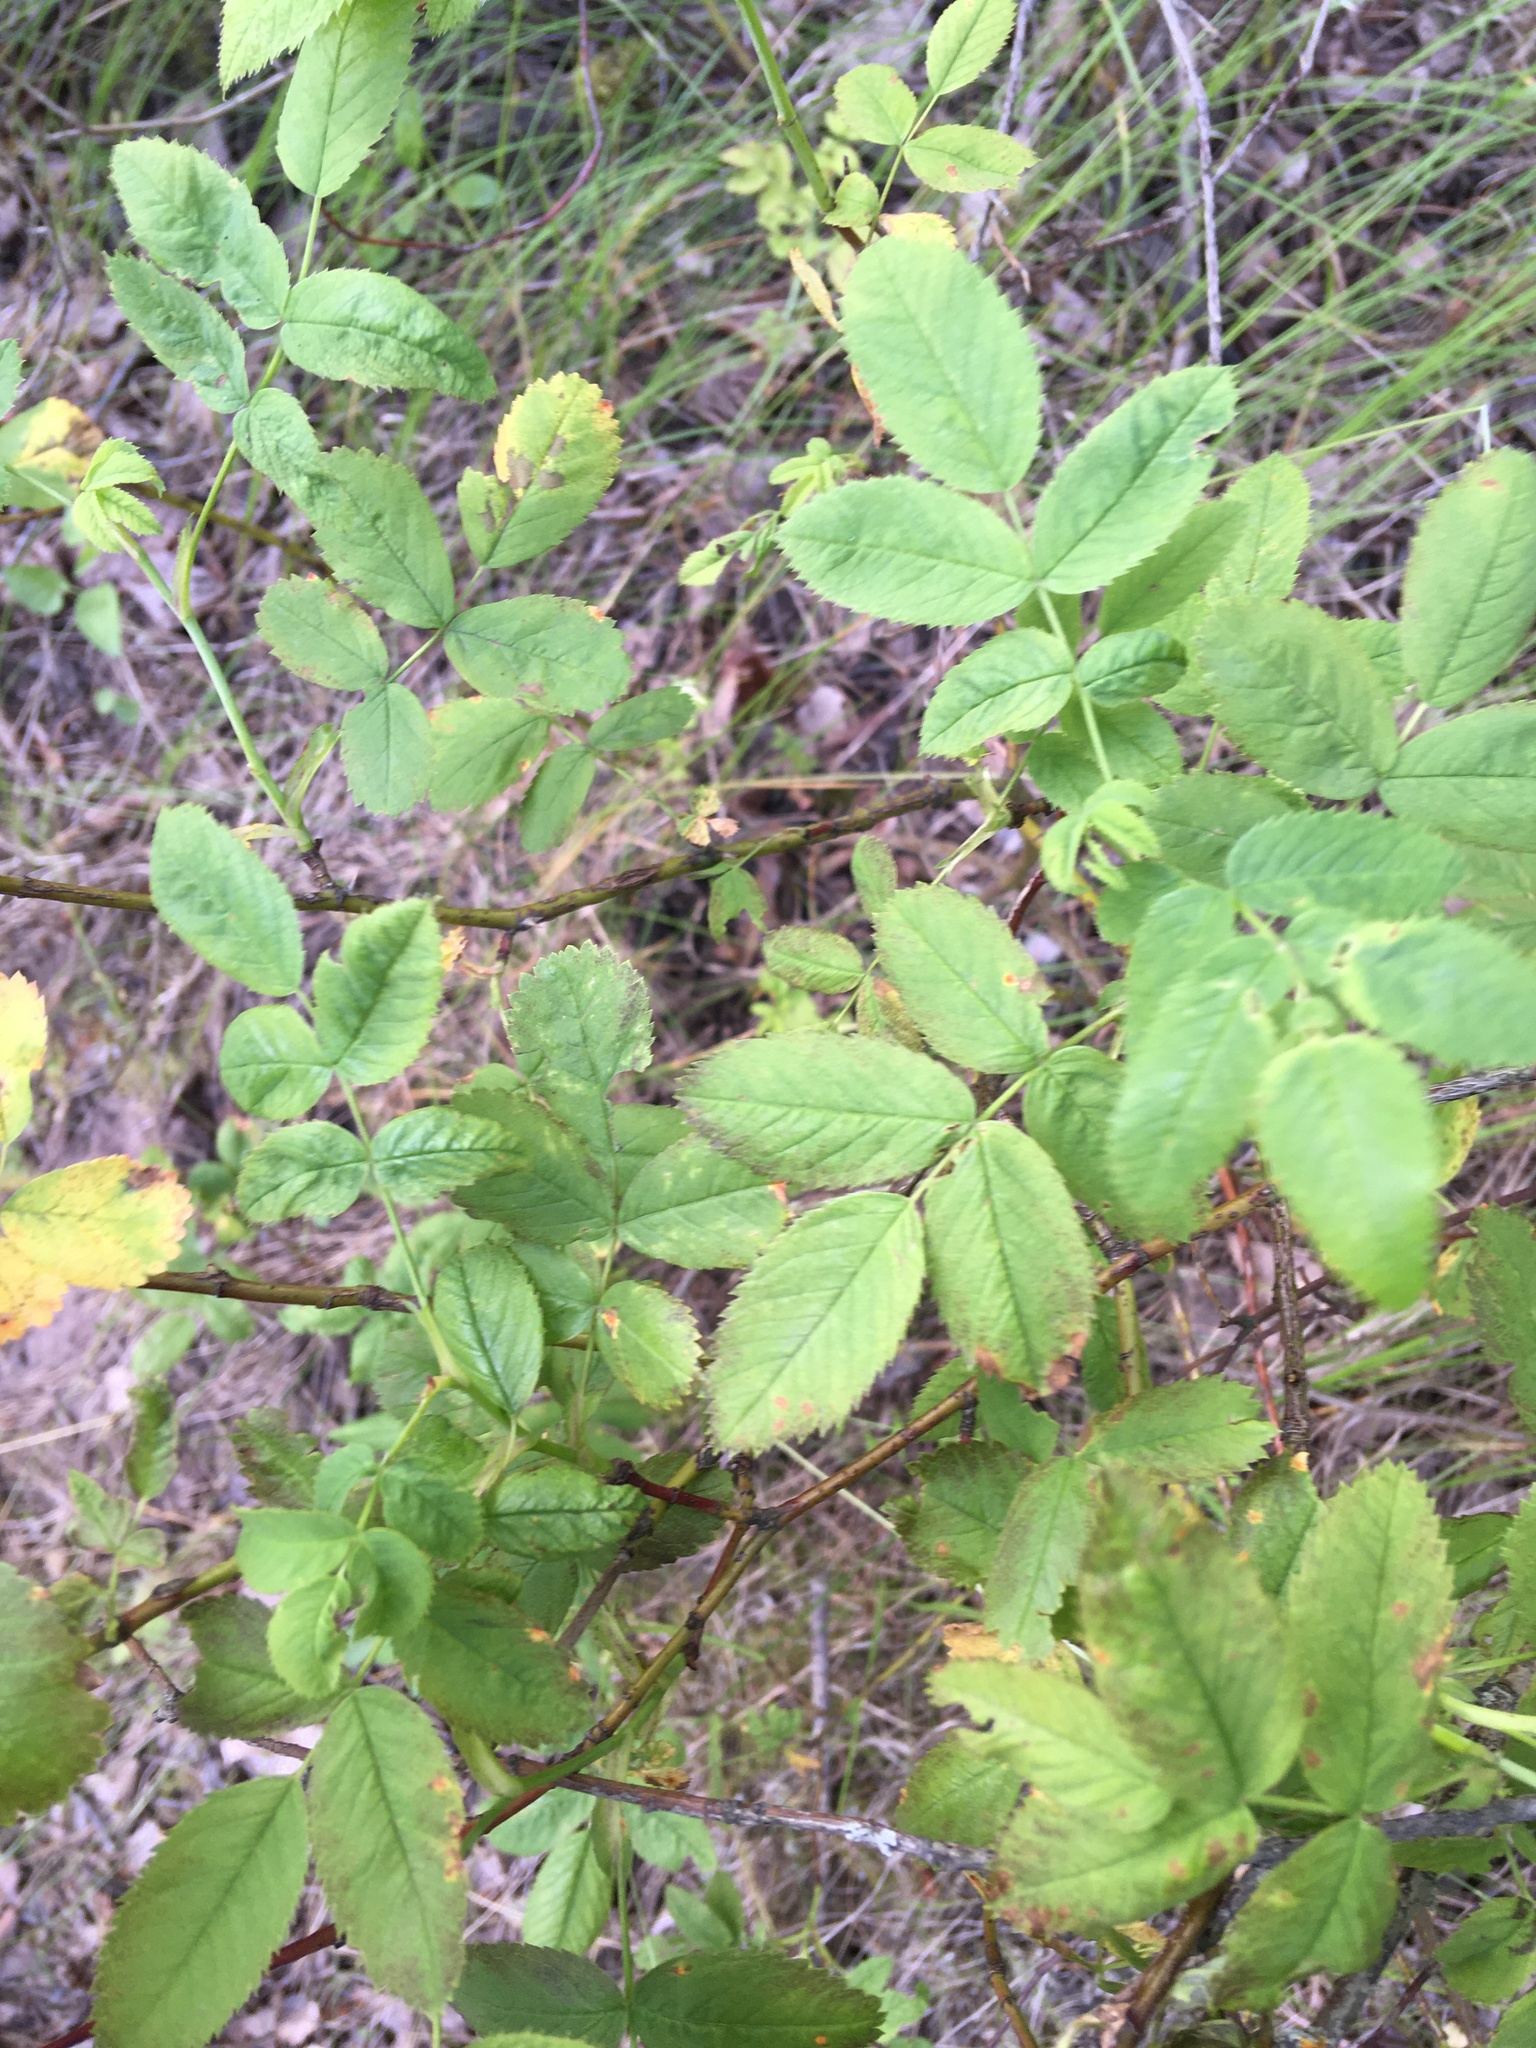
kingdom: Plantae
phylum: Tracheophyta
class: Magnoliopsida
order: Rosales
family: Rosaceae
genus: Rosa
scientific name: Rosa
